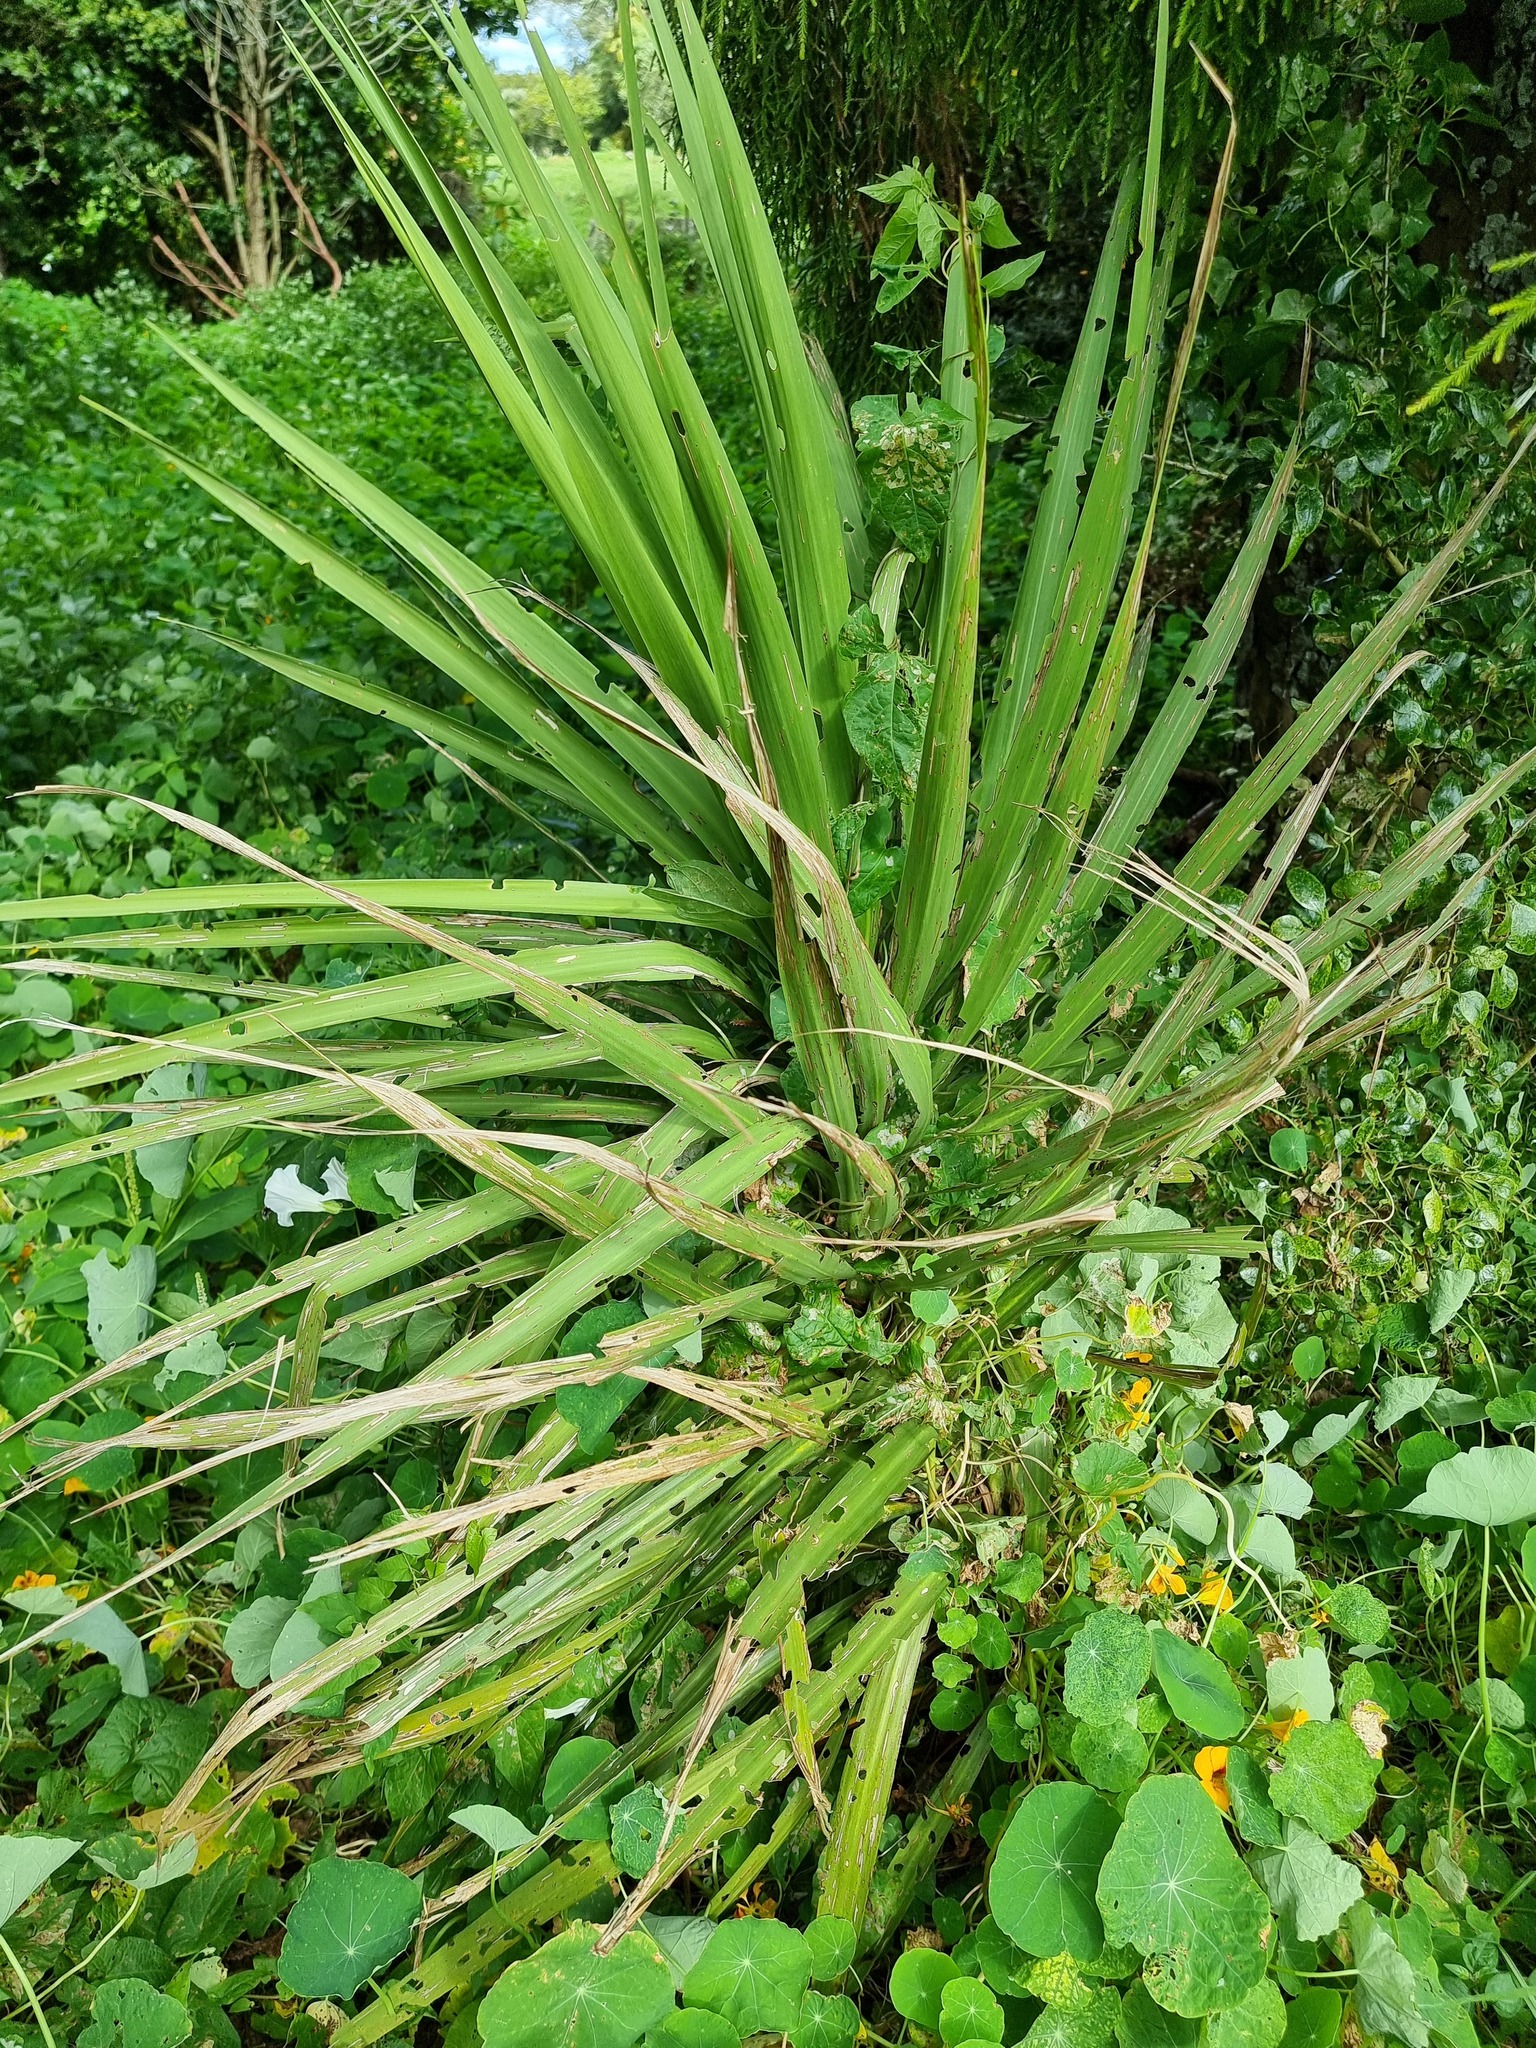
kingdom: Plantae
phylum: Tracheophyta
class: Liliopsida
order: Asparagales
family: Asparagaceae
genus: Cordyline
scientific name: Cordyline australis
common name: Cabbage-palm
